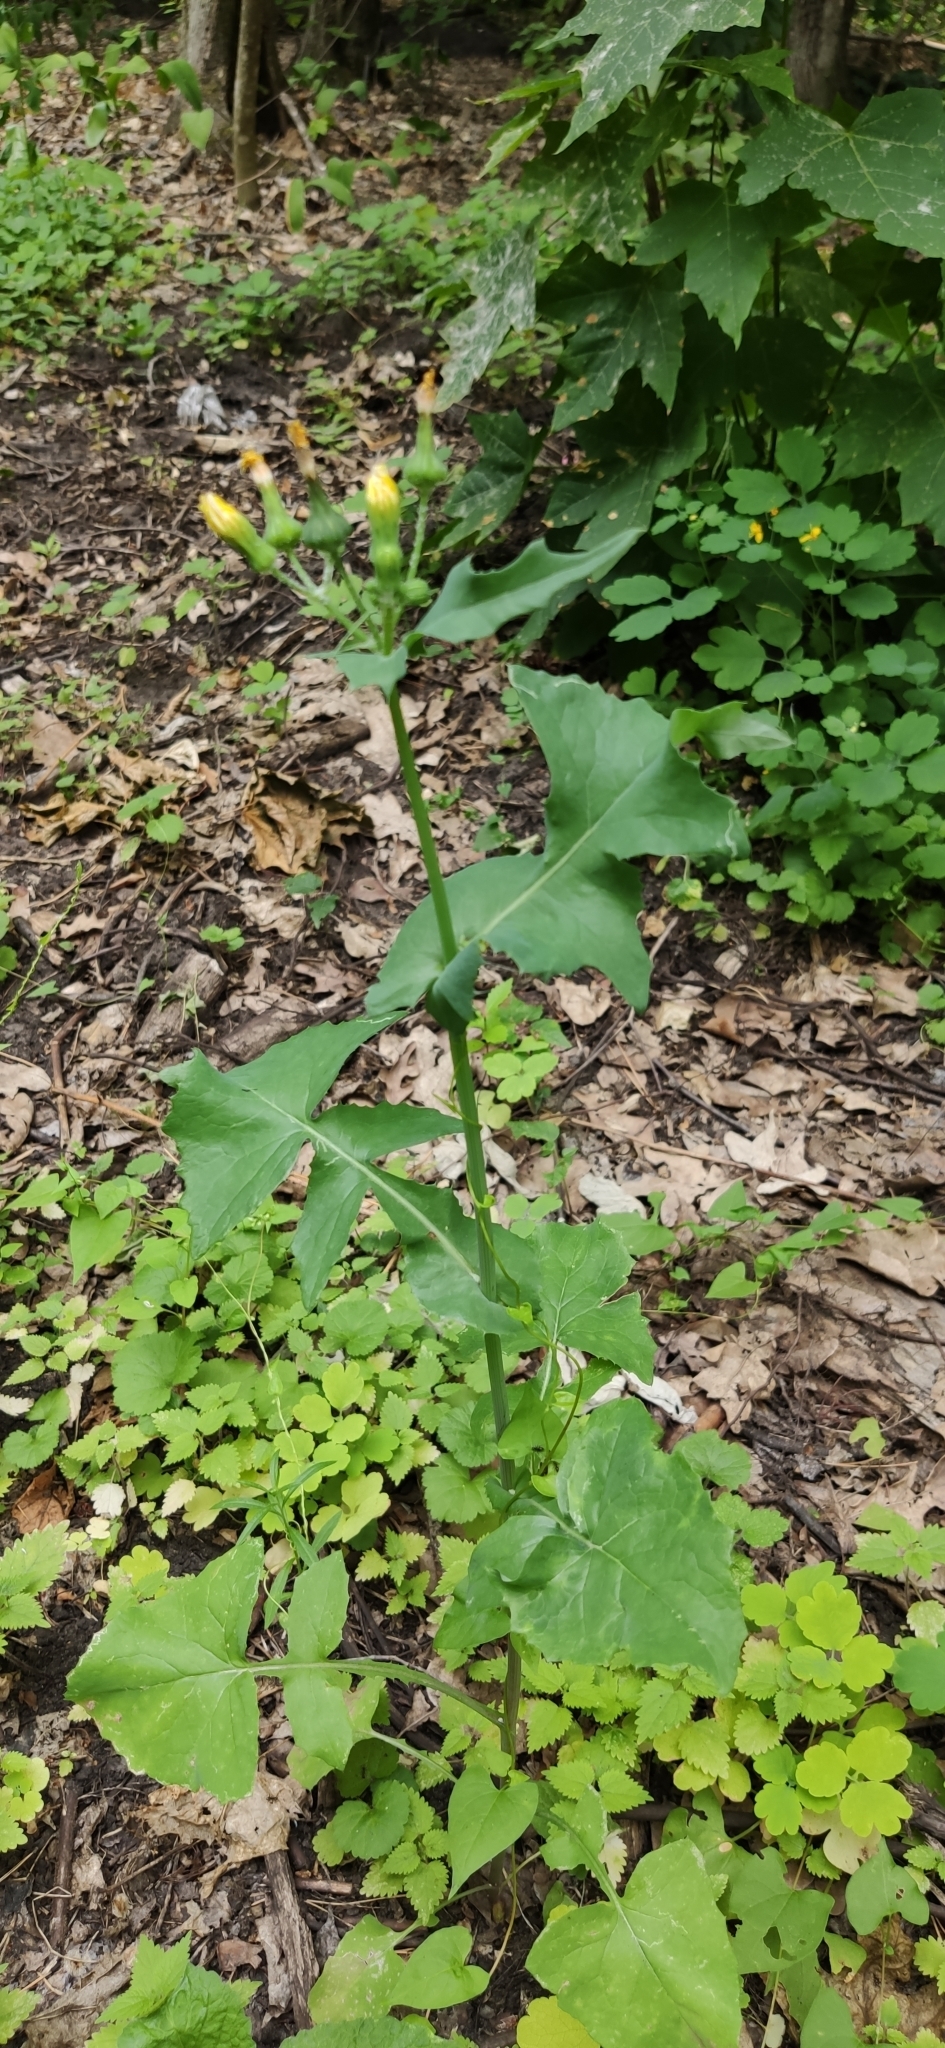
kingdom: Plantae
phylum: Tracheophyta
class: Magnoliopsida
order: Asterales
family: Asteraceae
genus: Sonchus
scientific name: Sonchus oleraceus
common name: Common sowthistle
